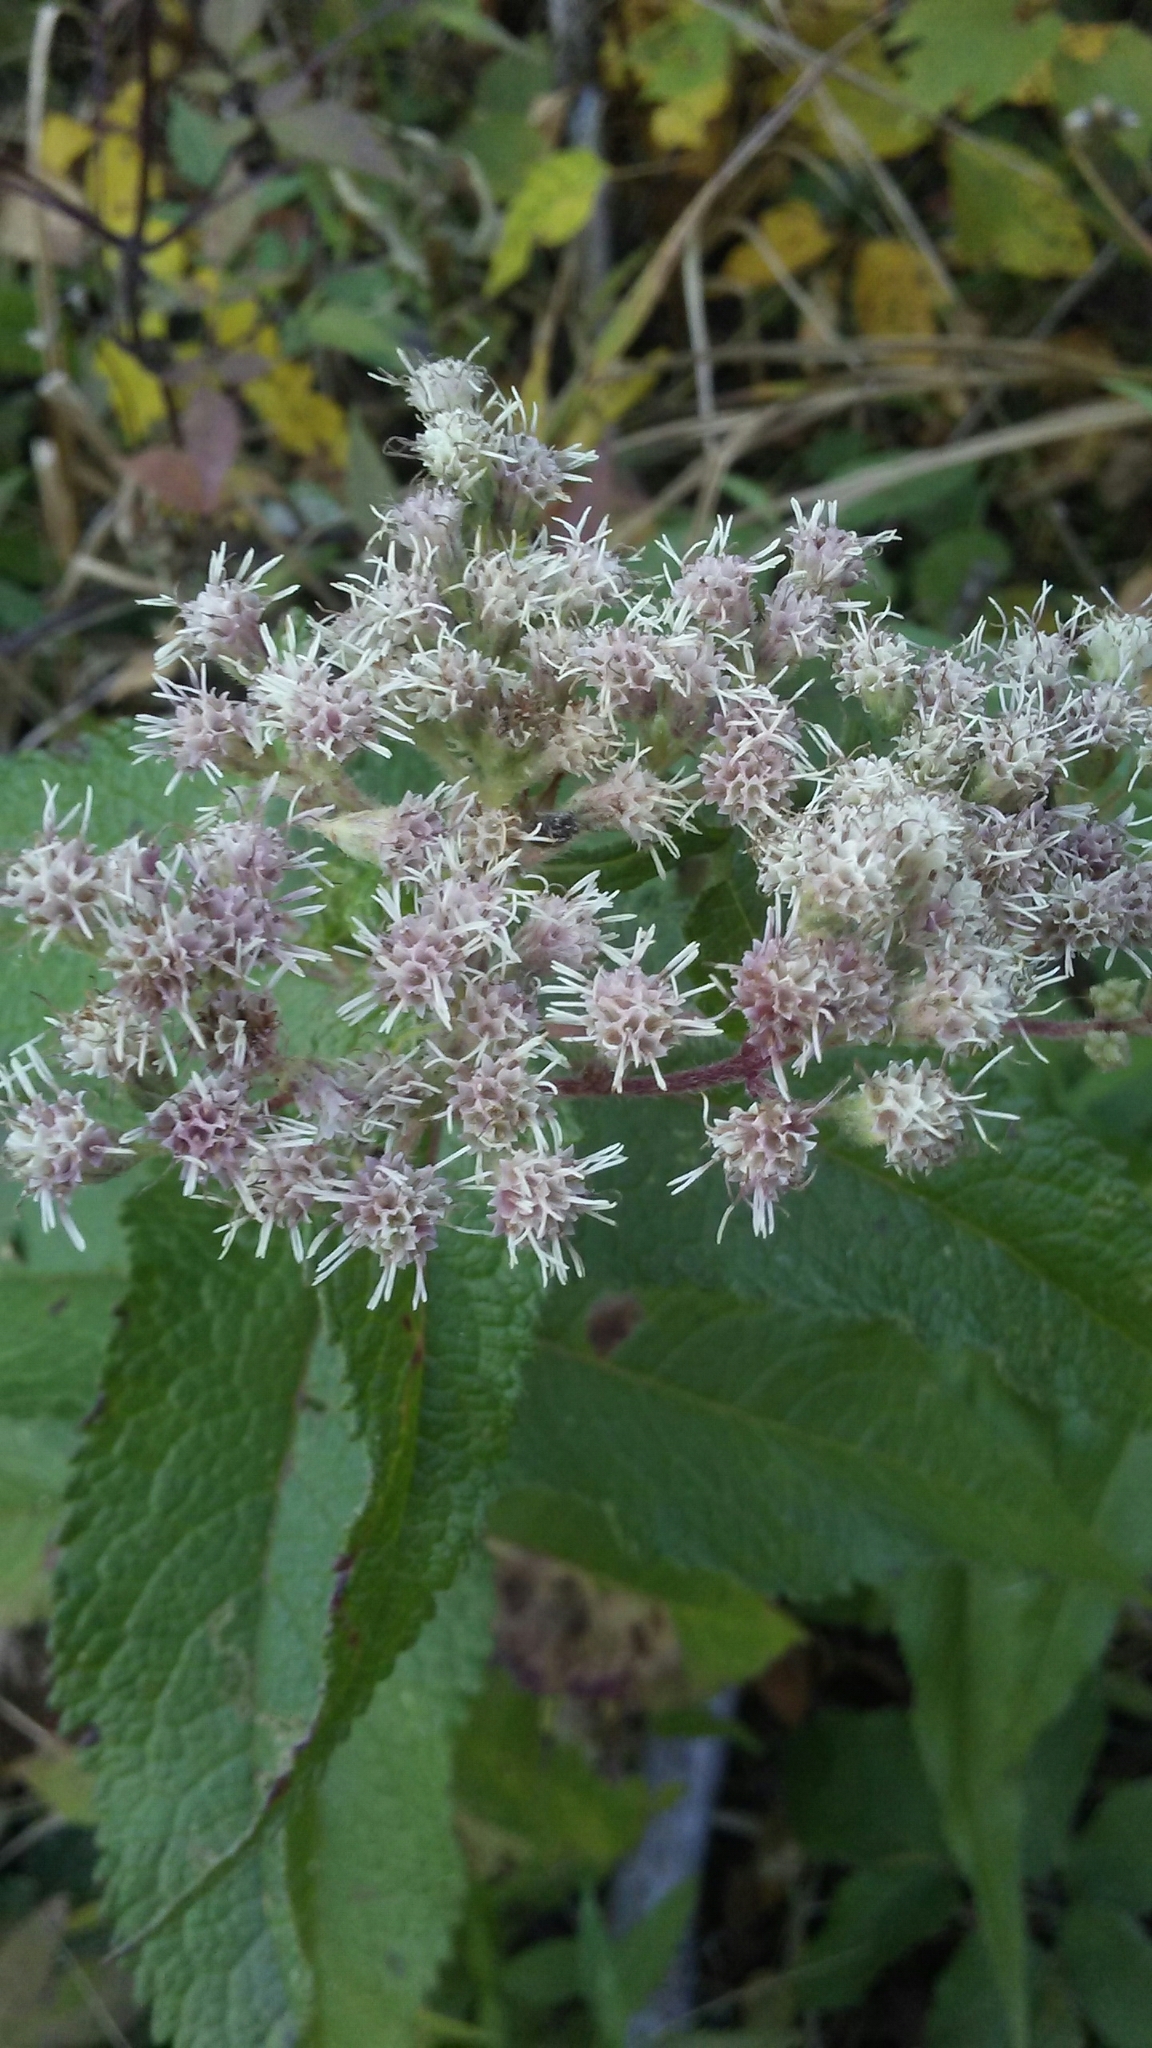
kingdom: Plantae
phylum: Tracheophyta
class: Magnoliopsida
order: Asterales
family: Asteraceae
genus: Eupatorium
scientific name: Eupatorium perfoliatum
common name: Boneset
